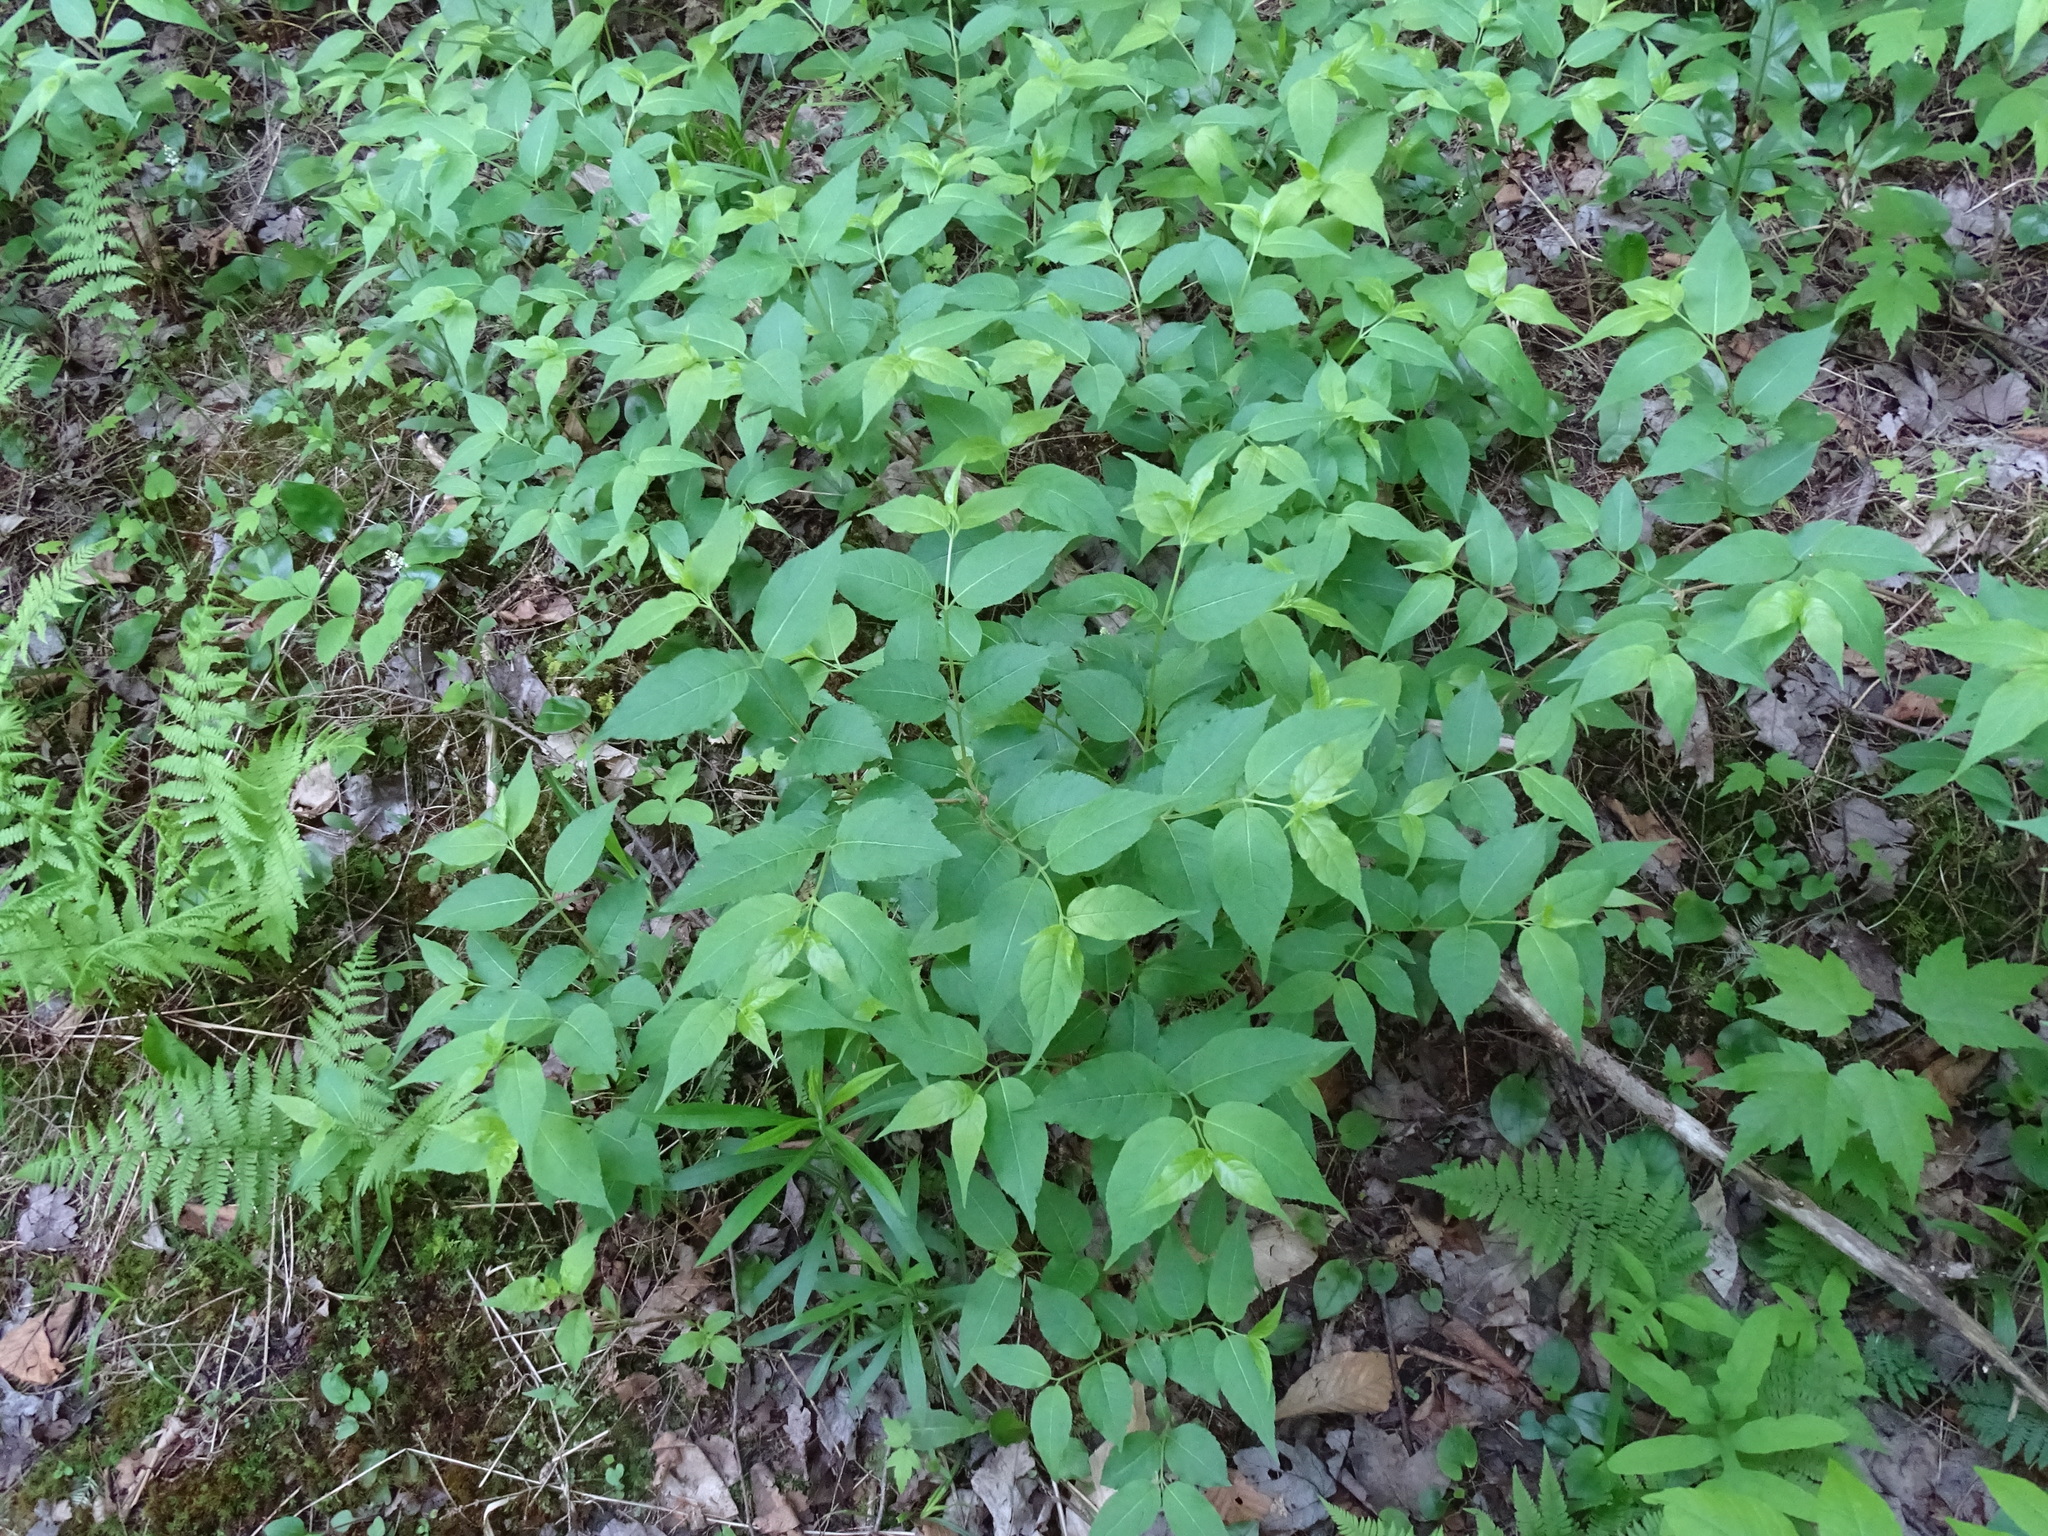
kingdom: Plantae
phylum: Tracheophyta
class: Magnoliopsida
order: Dipsacales
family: Caprifoliaceae
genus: Diervilla
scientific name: Diervilla lonicera
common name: Bush-honeysuckle
